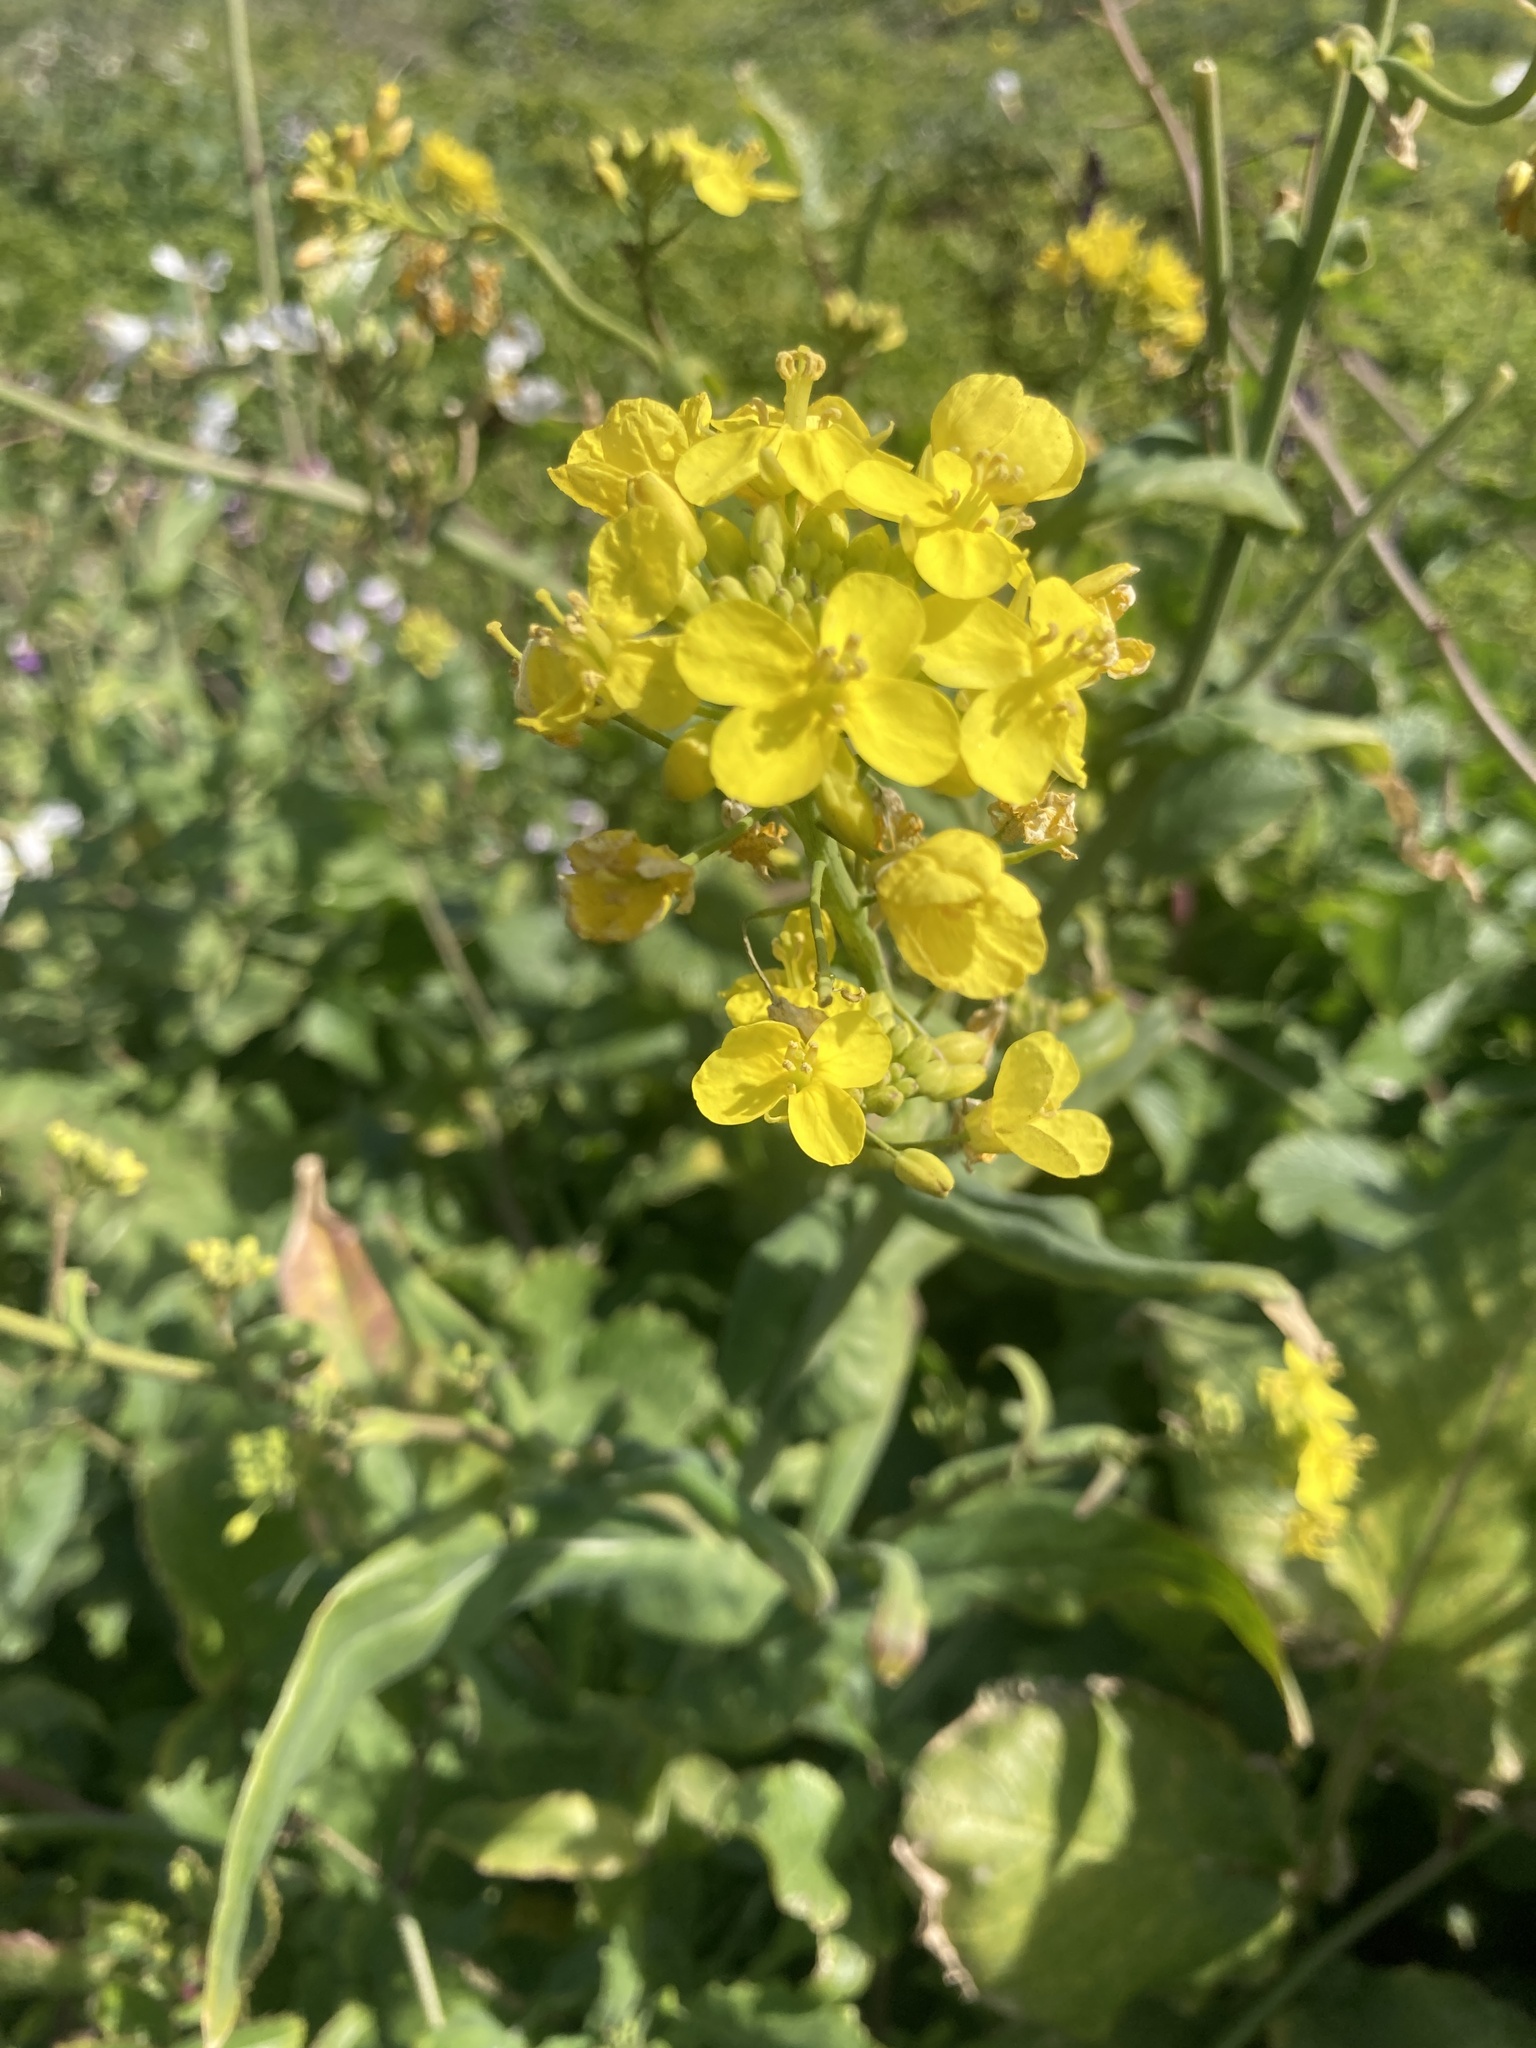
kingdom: Plantae
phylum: Tracheophyta
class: Magnoliopsida
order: Brassicales
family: Brassicaceae
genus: Brassica
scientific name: Brassica rapa
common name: Field mustard
